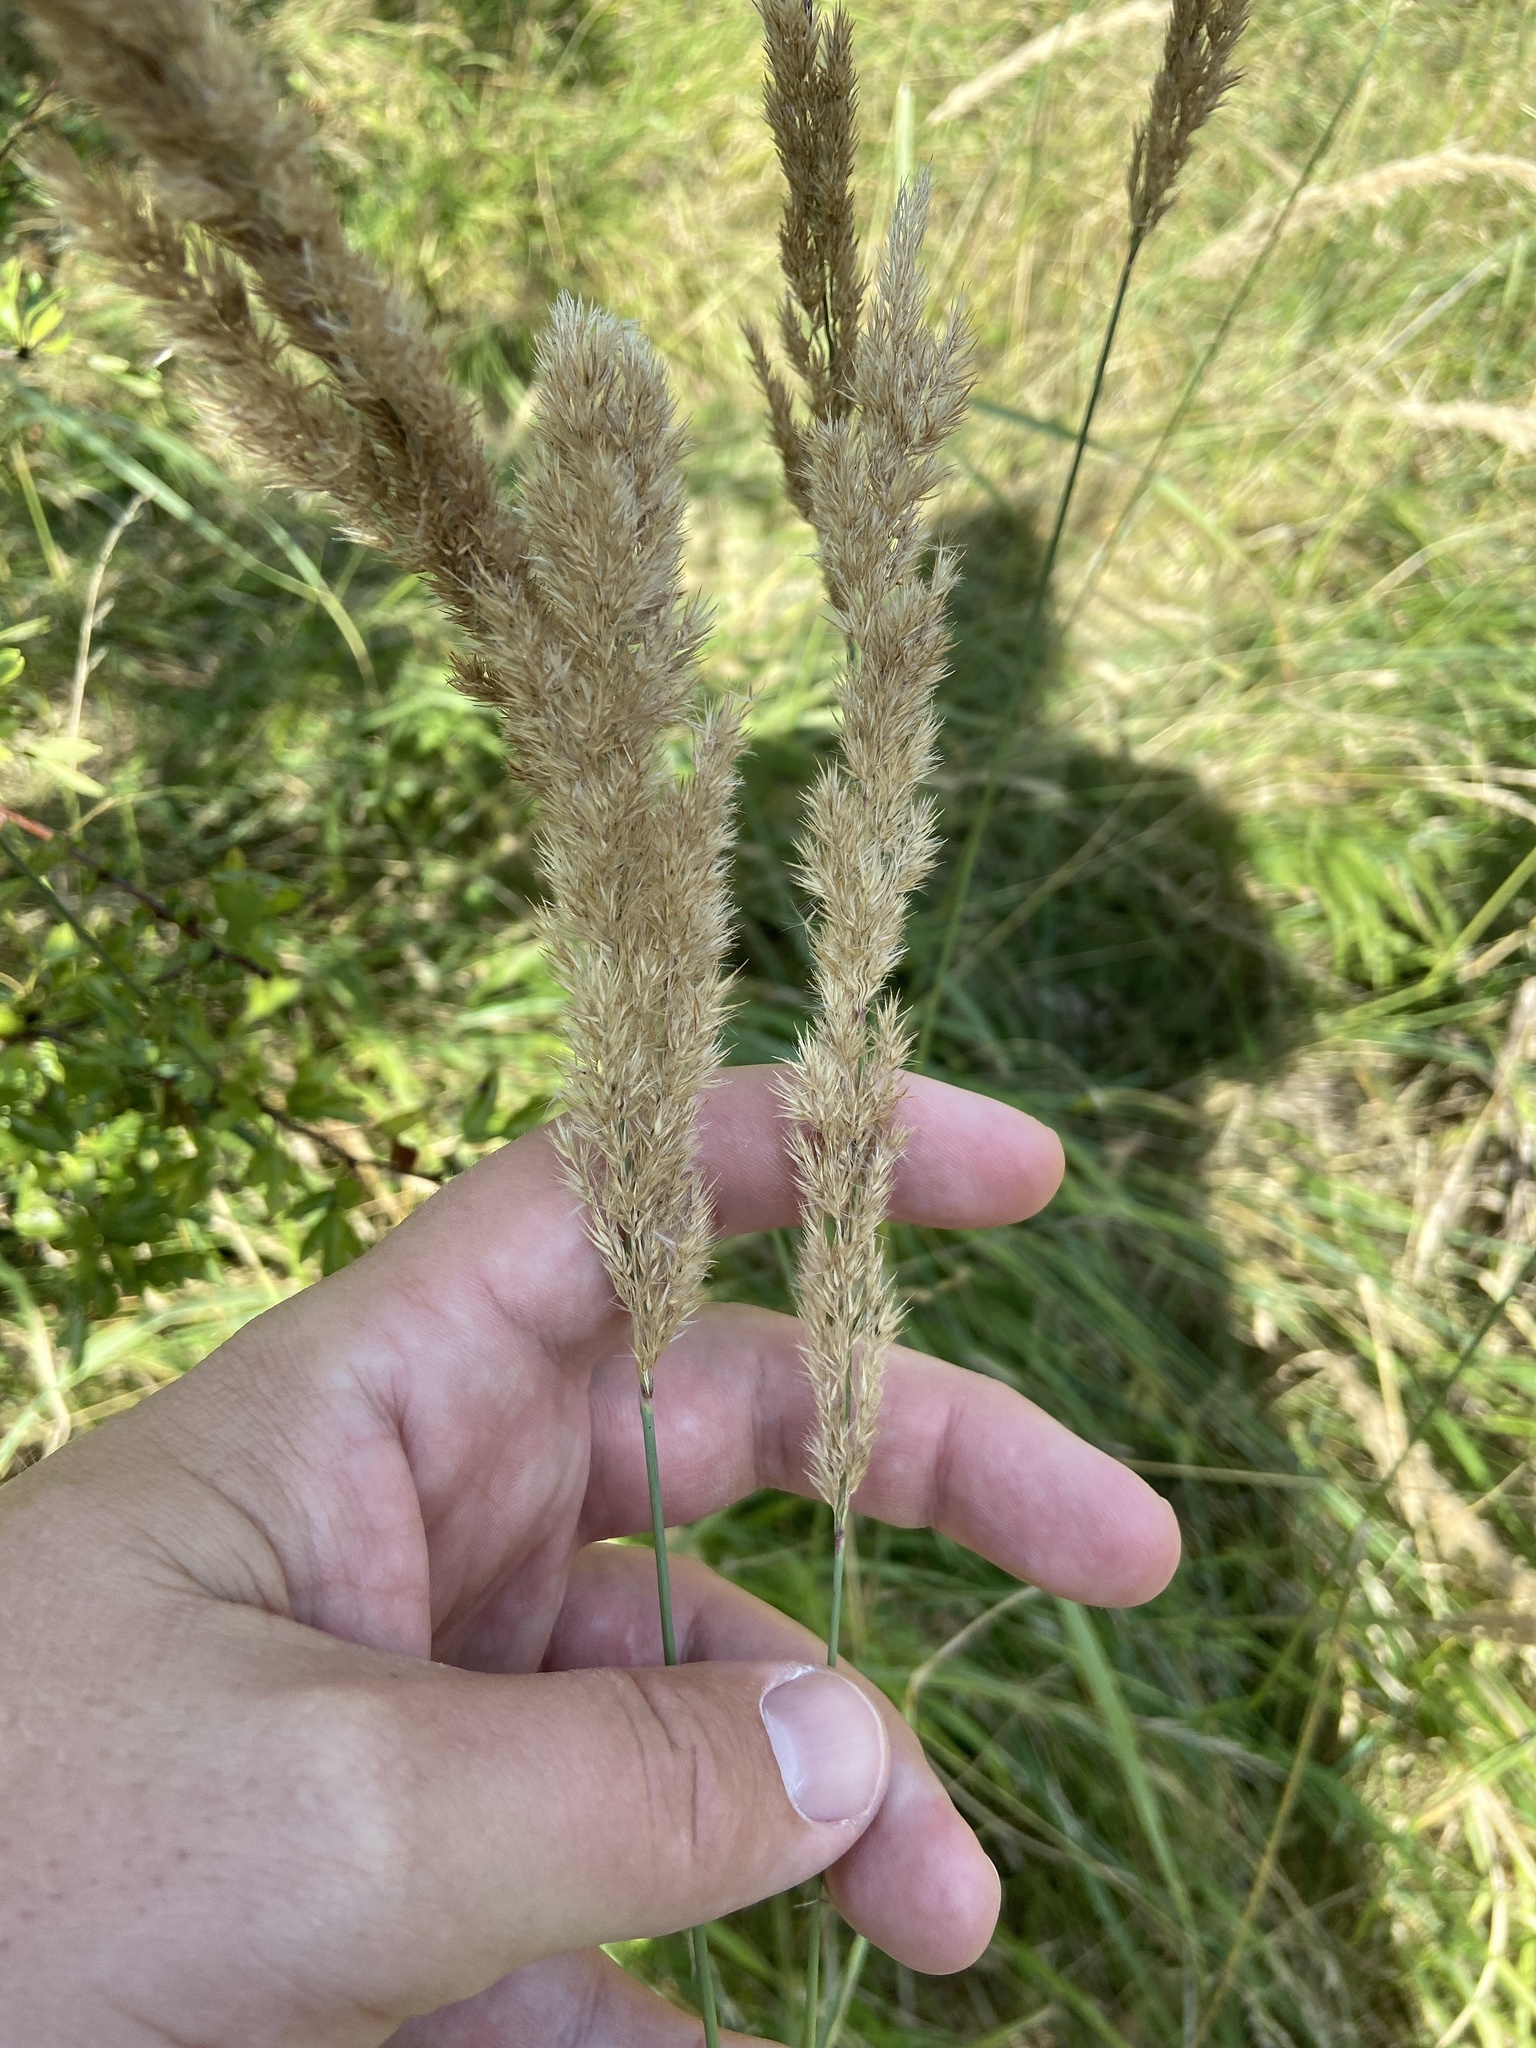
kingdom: Plantae
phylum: Tracheophyta
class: Liliopsida
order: Poales
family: Poaceae
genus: Calamagrostis
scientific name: Calamagrostis epigejos
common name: Wood small-reed
